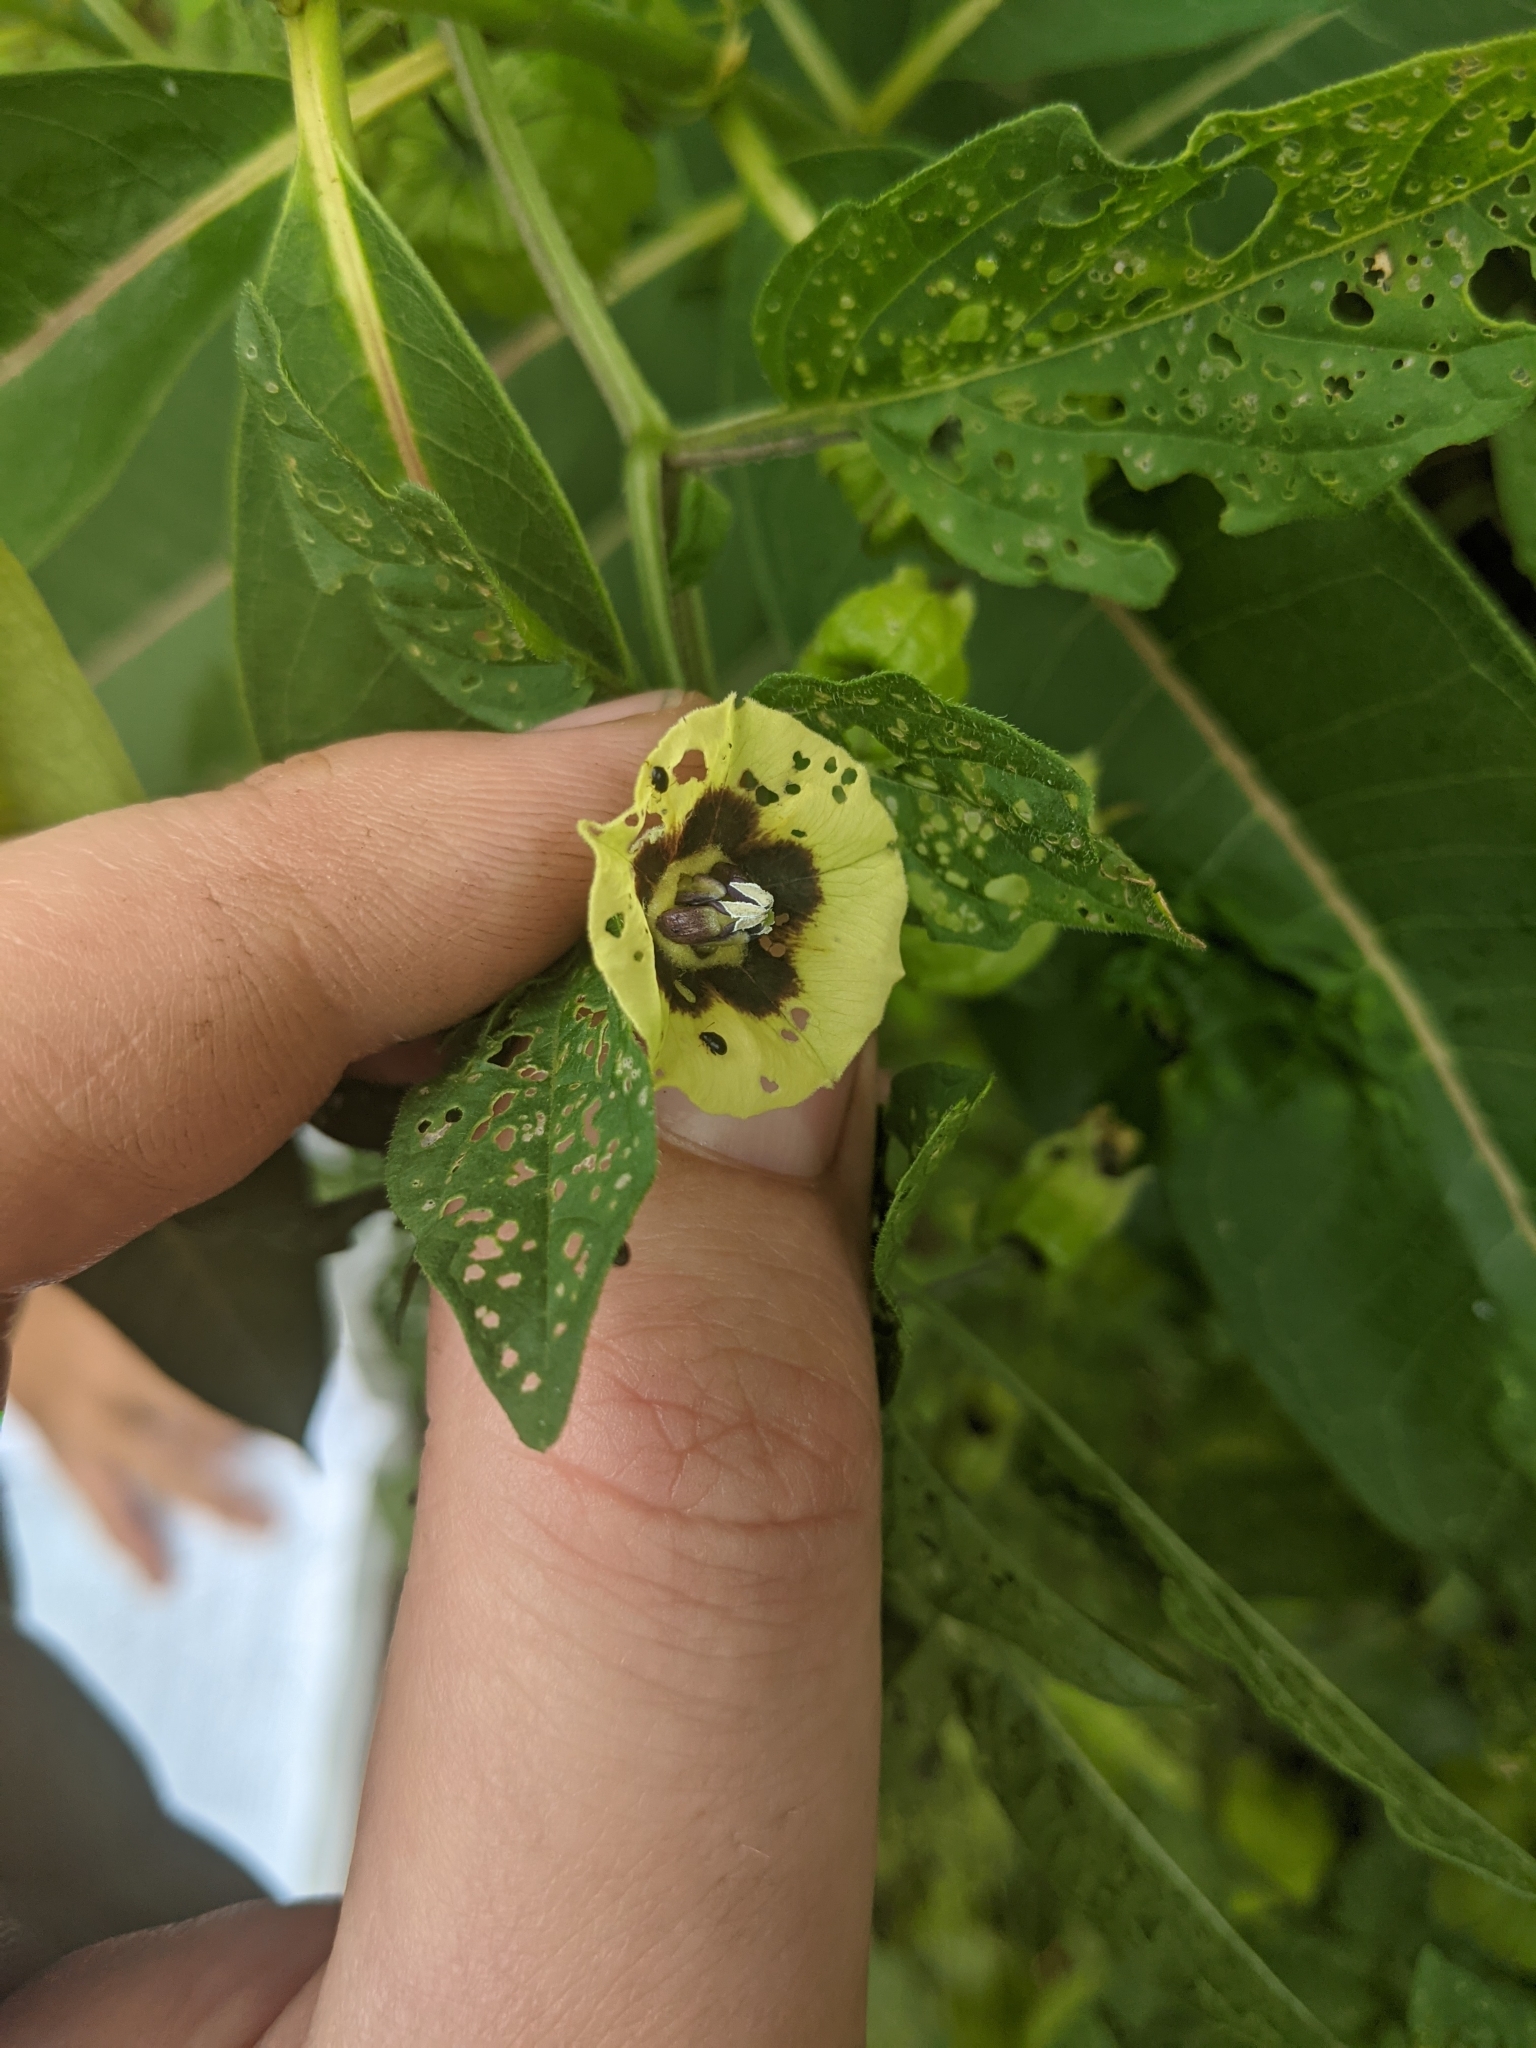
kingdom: Plantae
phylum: Tracheophyta
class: Magnoliopsida
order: Solanales
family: Solanaceae
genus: Physalis
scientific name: Physalis longifolia
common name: Common ground-cherry
